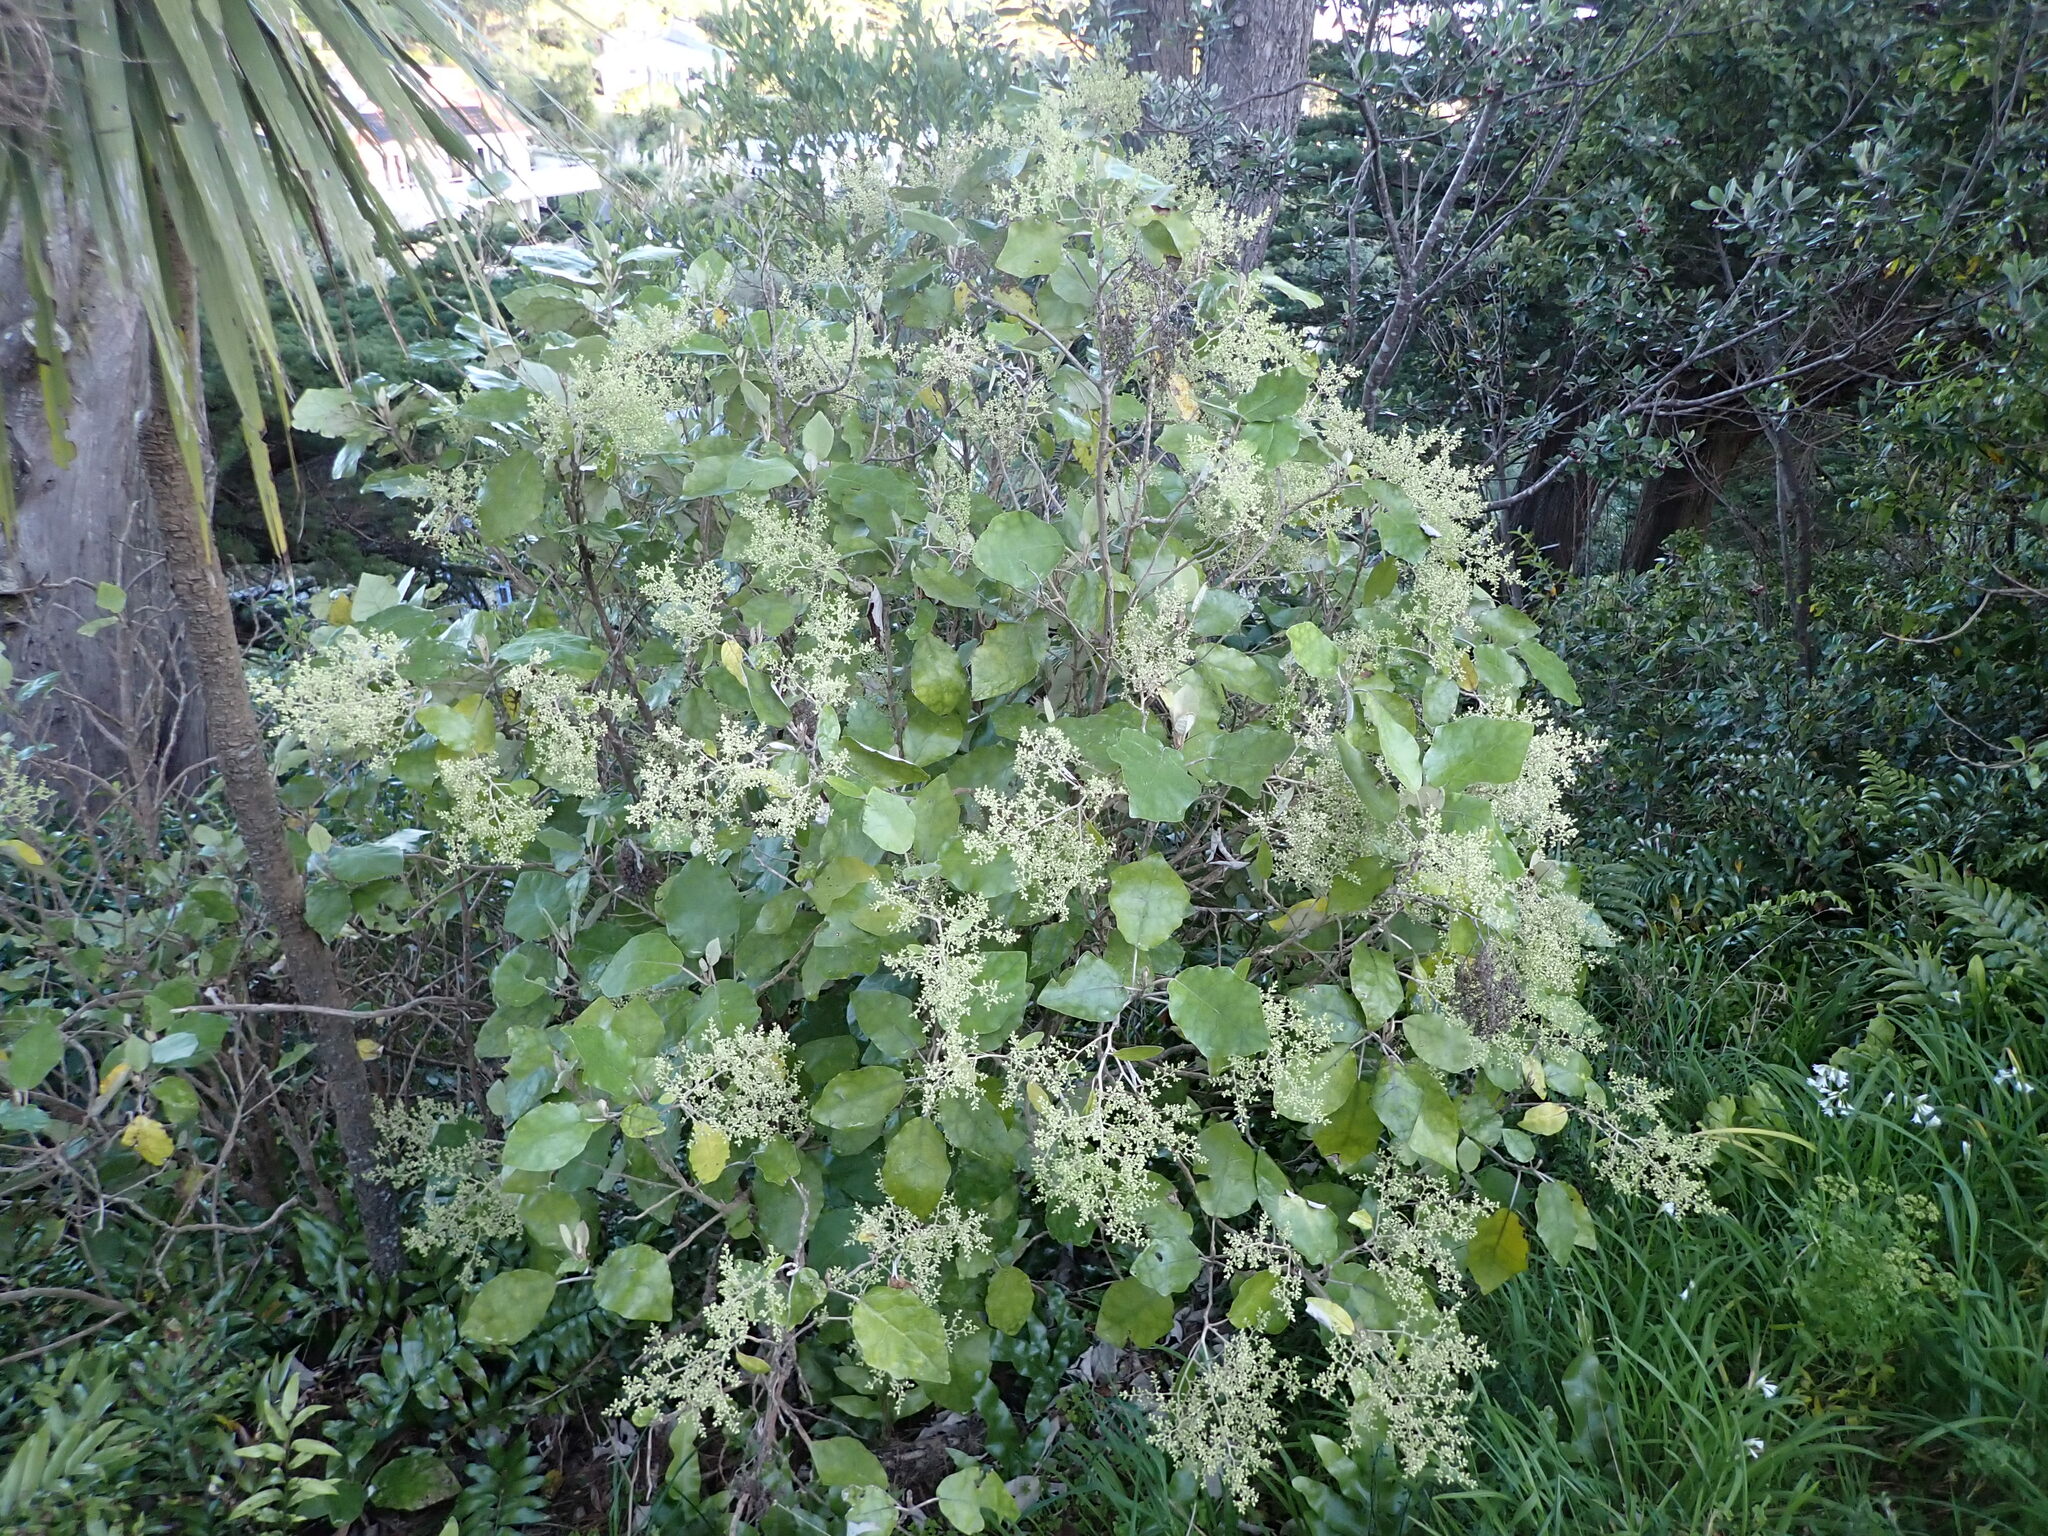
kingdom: Plantae
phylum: Tracheophyta
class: Magnoliopsida
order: Asterales
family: Asteraceae
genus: Brachyglottis
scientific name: Brachyglottis repanda
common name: Hedge ragwort
